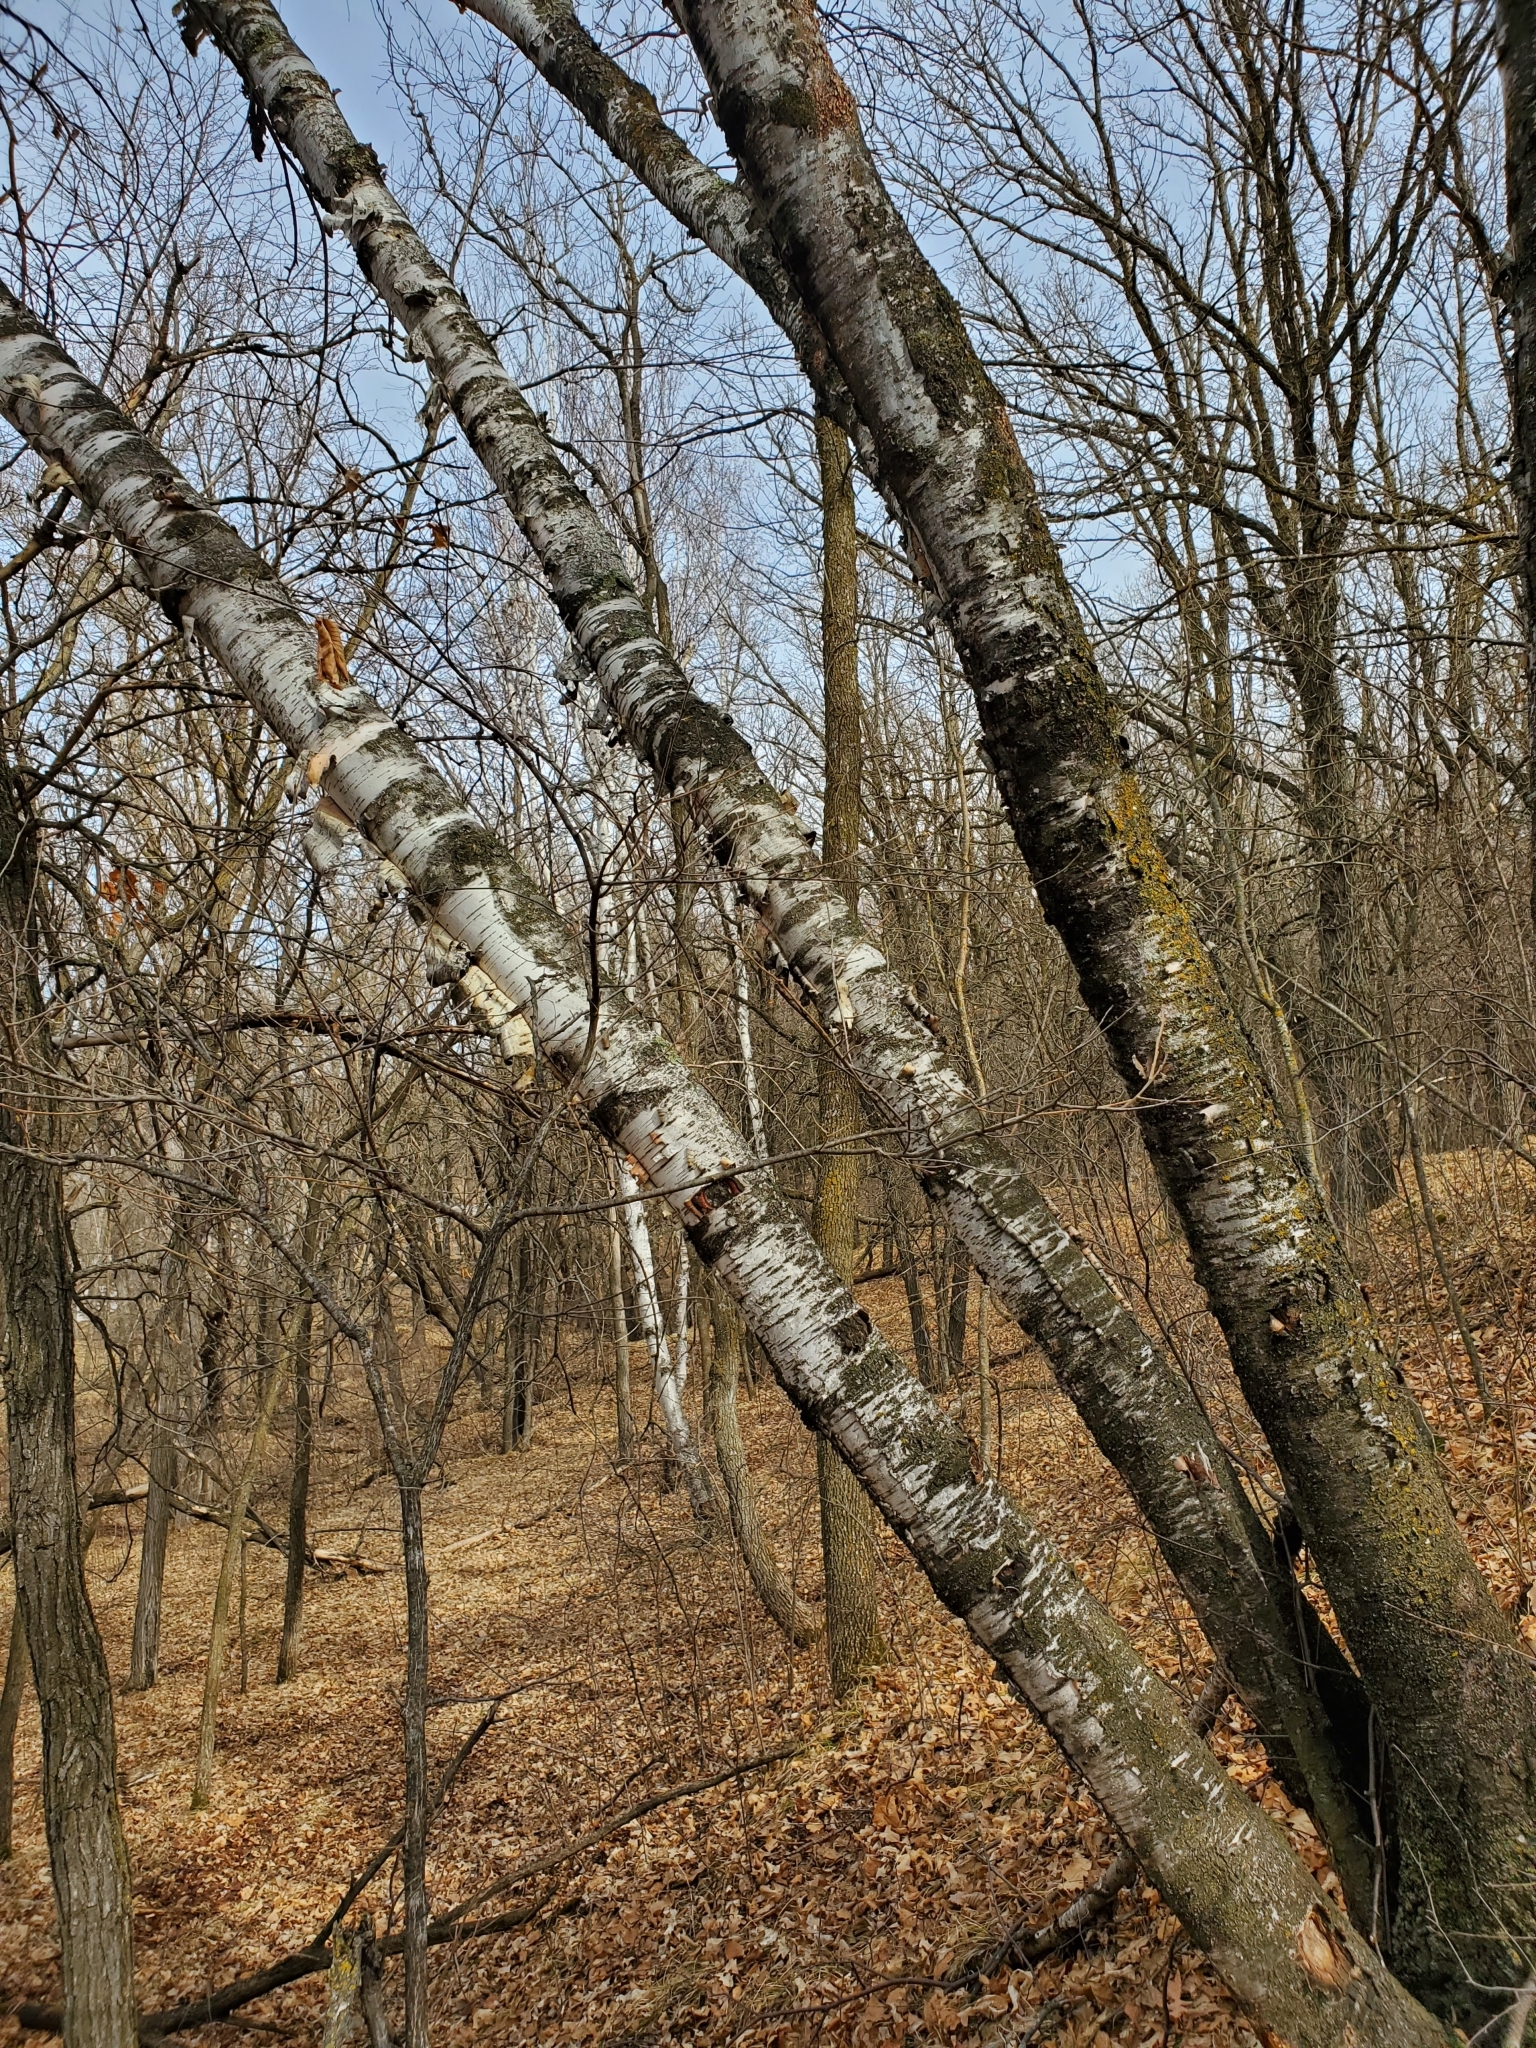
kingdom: Plantae
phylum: Tracheophyta
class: Magnoliopsida
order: Fagales
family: Betulaceae
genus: Betula
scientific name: Betula papyrifera
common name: Paper birch
